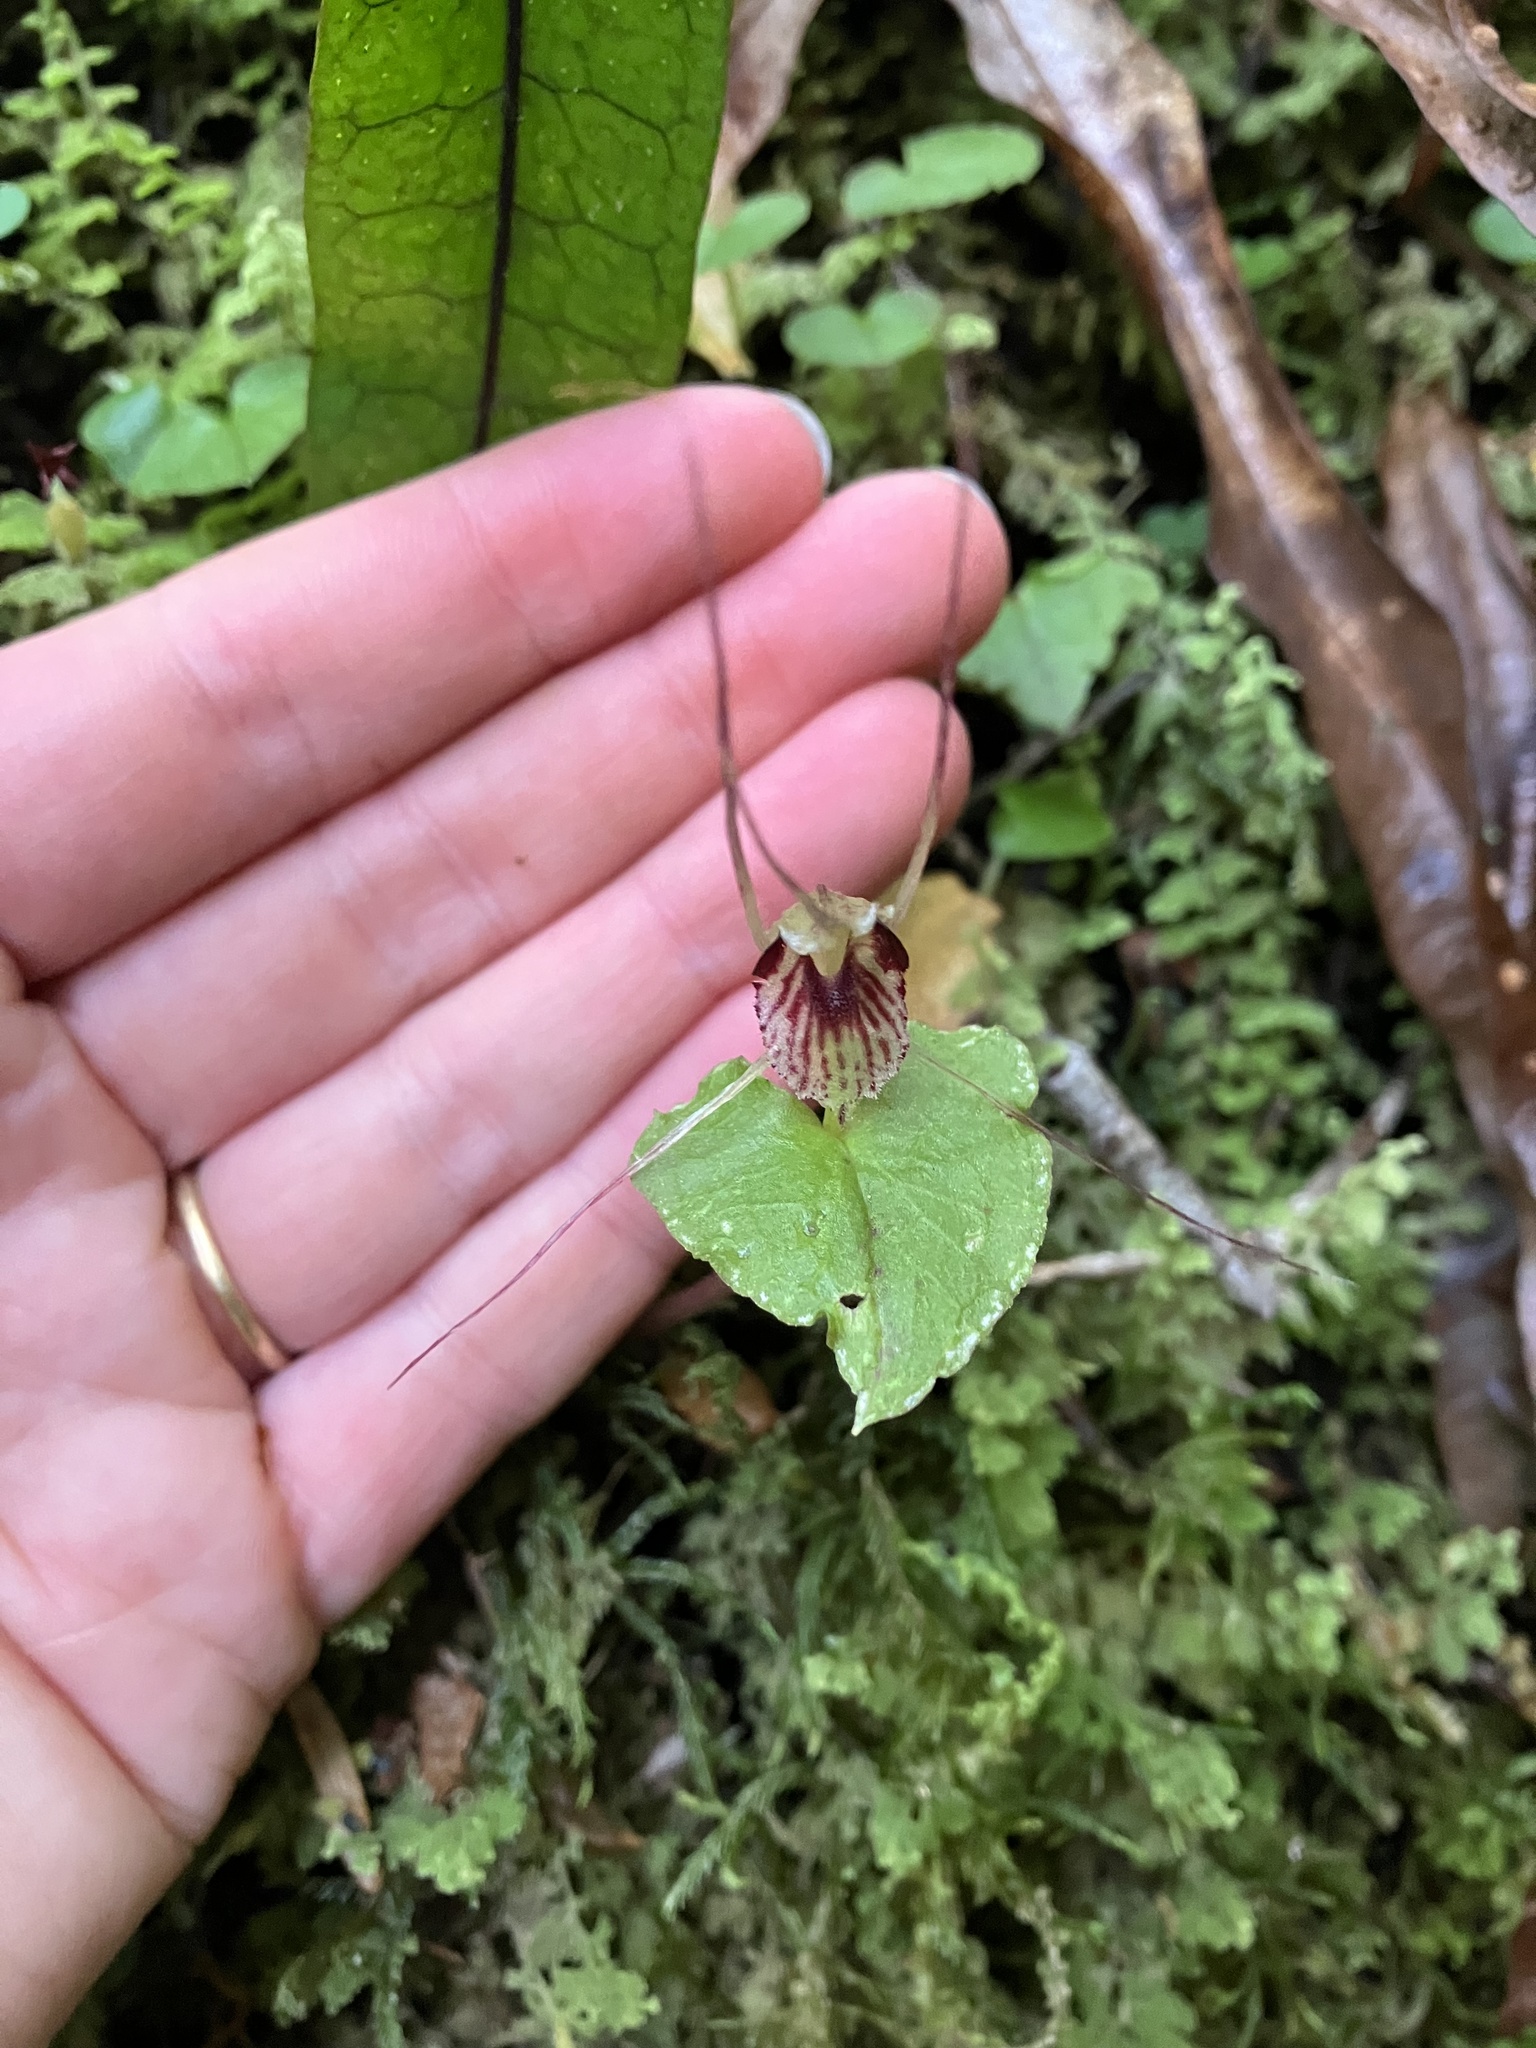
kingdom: Plantae
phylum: Tracheophyta
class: Liliopsida
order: Asparagales
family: Orchidaceae
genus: Corybas
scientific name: Corybas acuminatus
